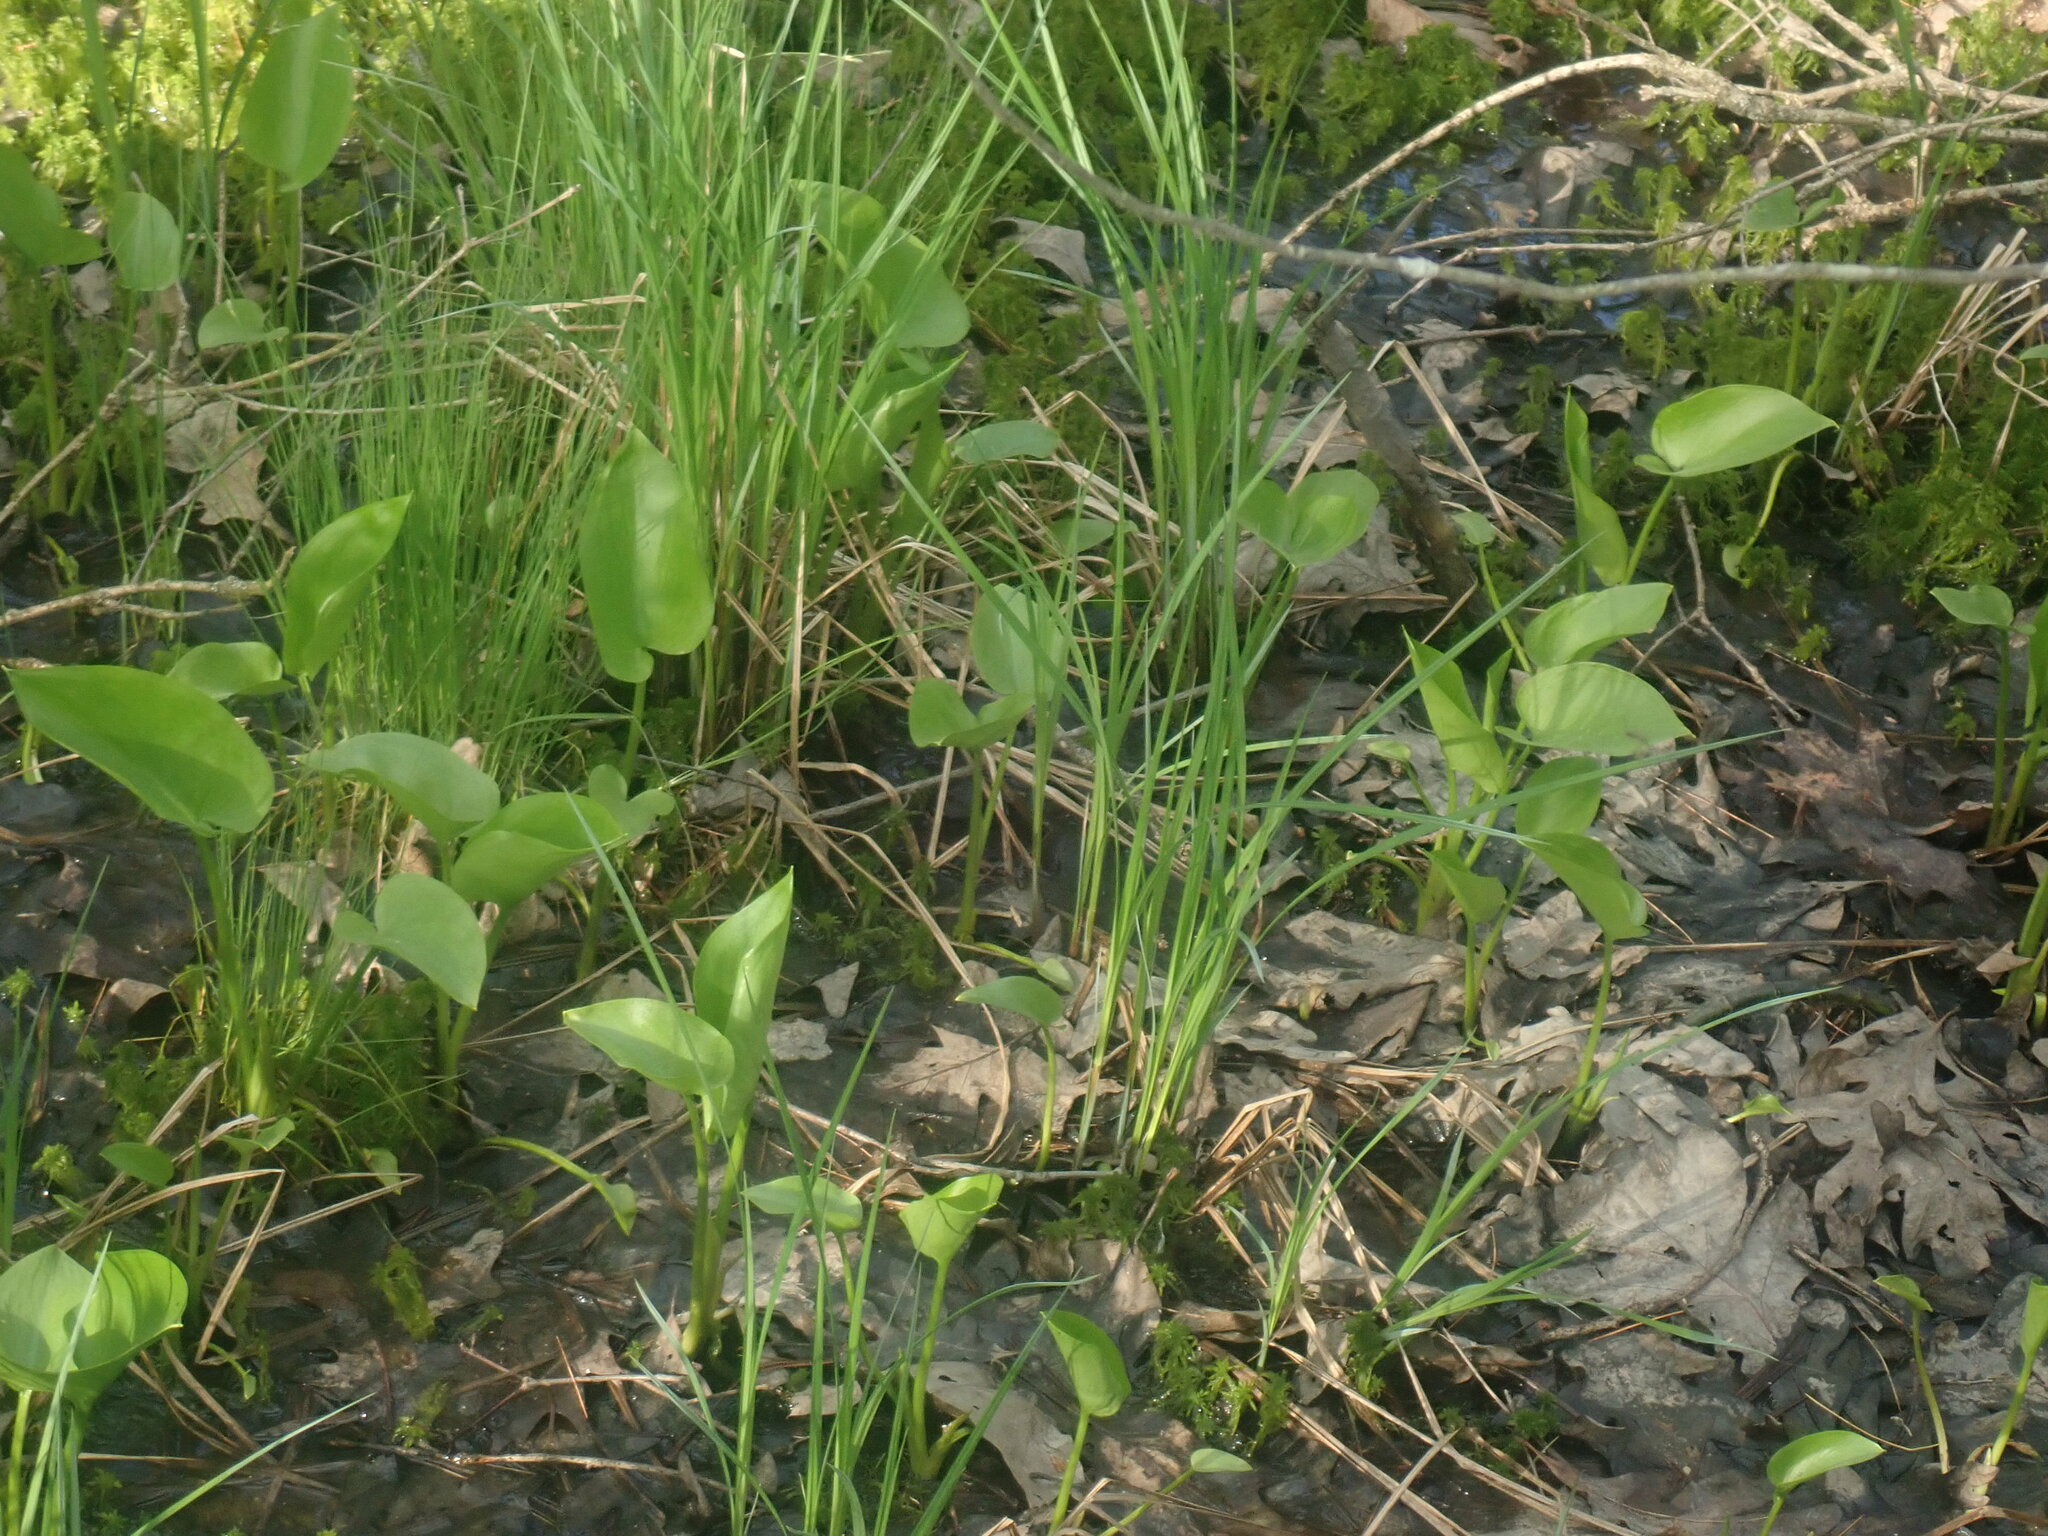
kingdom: Plantae
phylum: Tracheophyta
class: Liliopsida
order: Alismatales
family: Araceae
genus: Calla
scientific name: Calla palustris
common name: Bog arum
